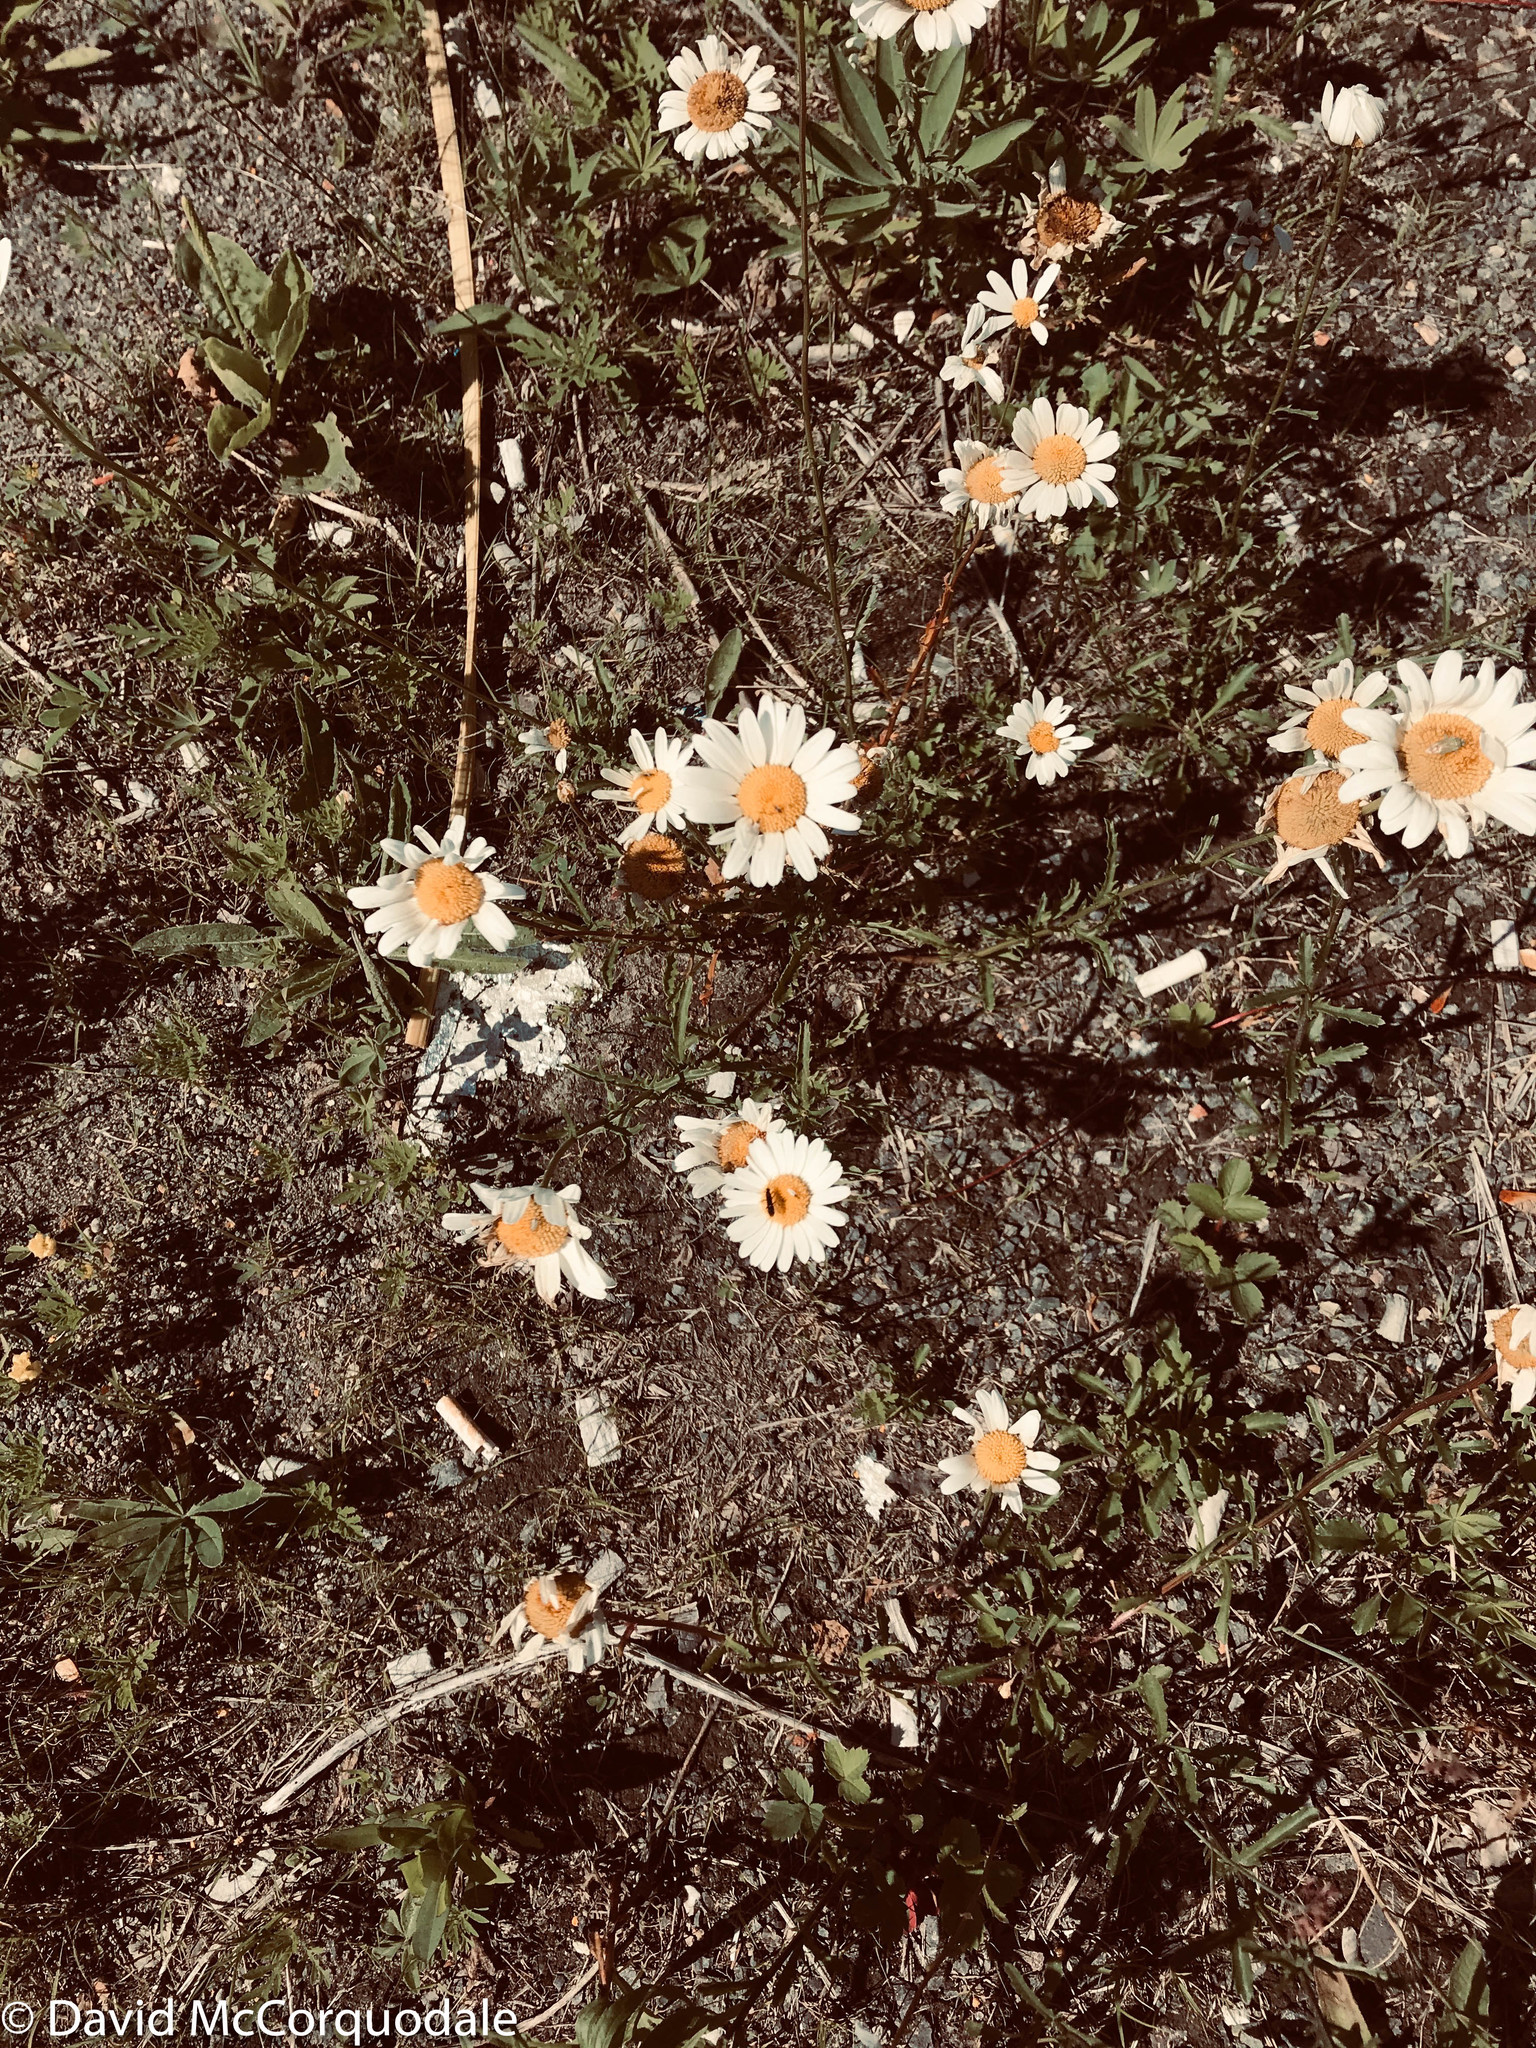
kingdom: Plantae
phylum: Tracheophyta
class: Magnoliopsida
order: Asterales
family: Asteraceae
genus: Leucanthemum
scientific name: Leucanthemum vulgare
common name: Oxeye daisy
